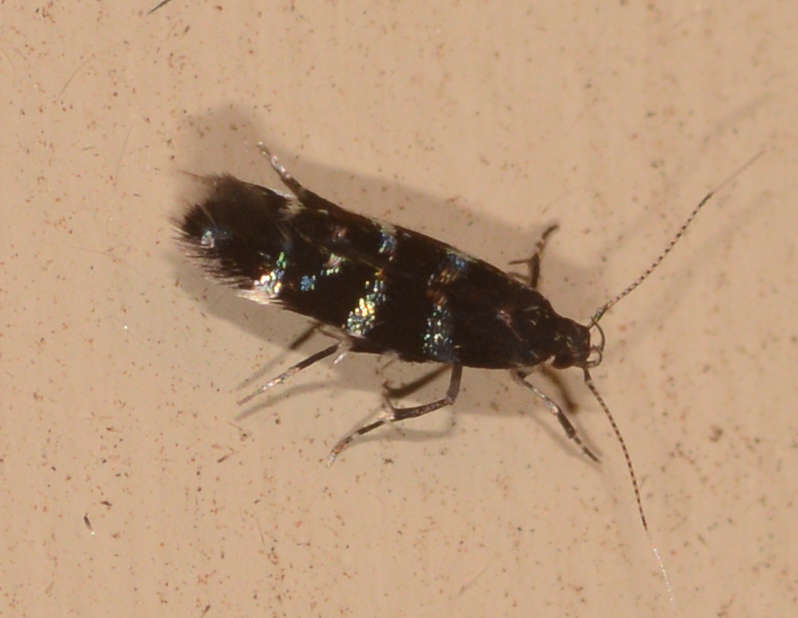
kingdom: Animalia
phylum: Arthropoda
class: Insecta
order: Lepidoptera
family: Cosmopterigidae
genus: Stagmatophora
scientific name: Stagmatophora argyrostrepta
